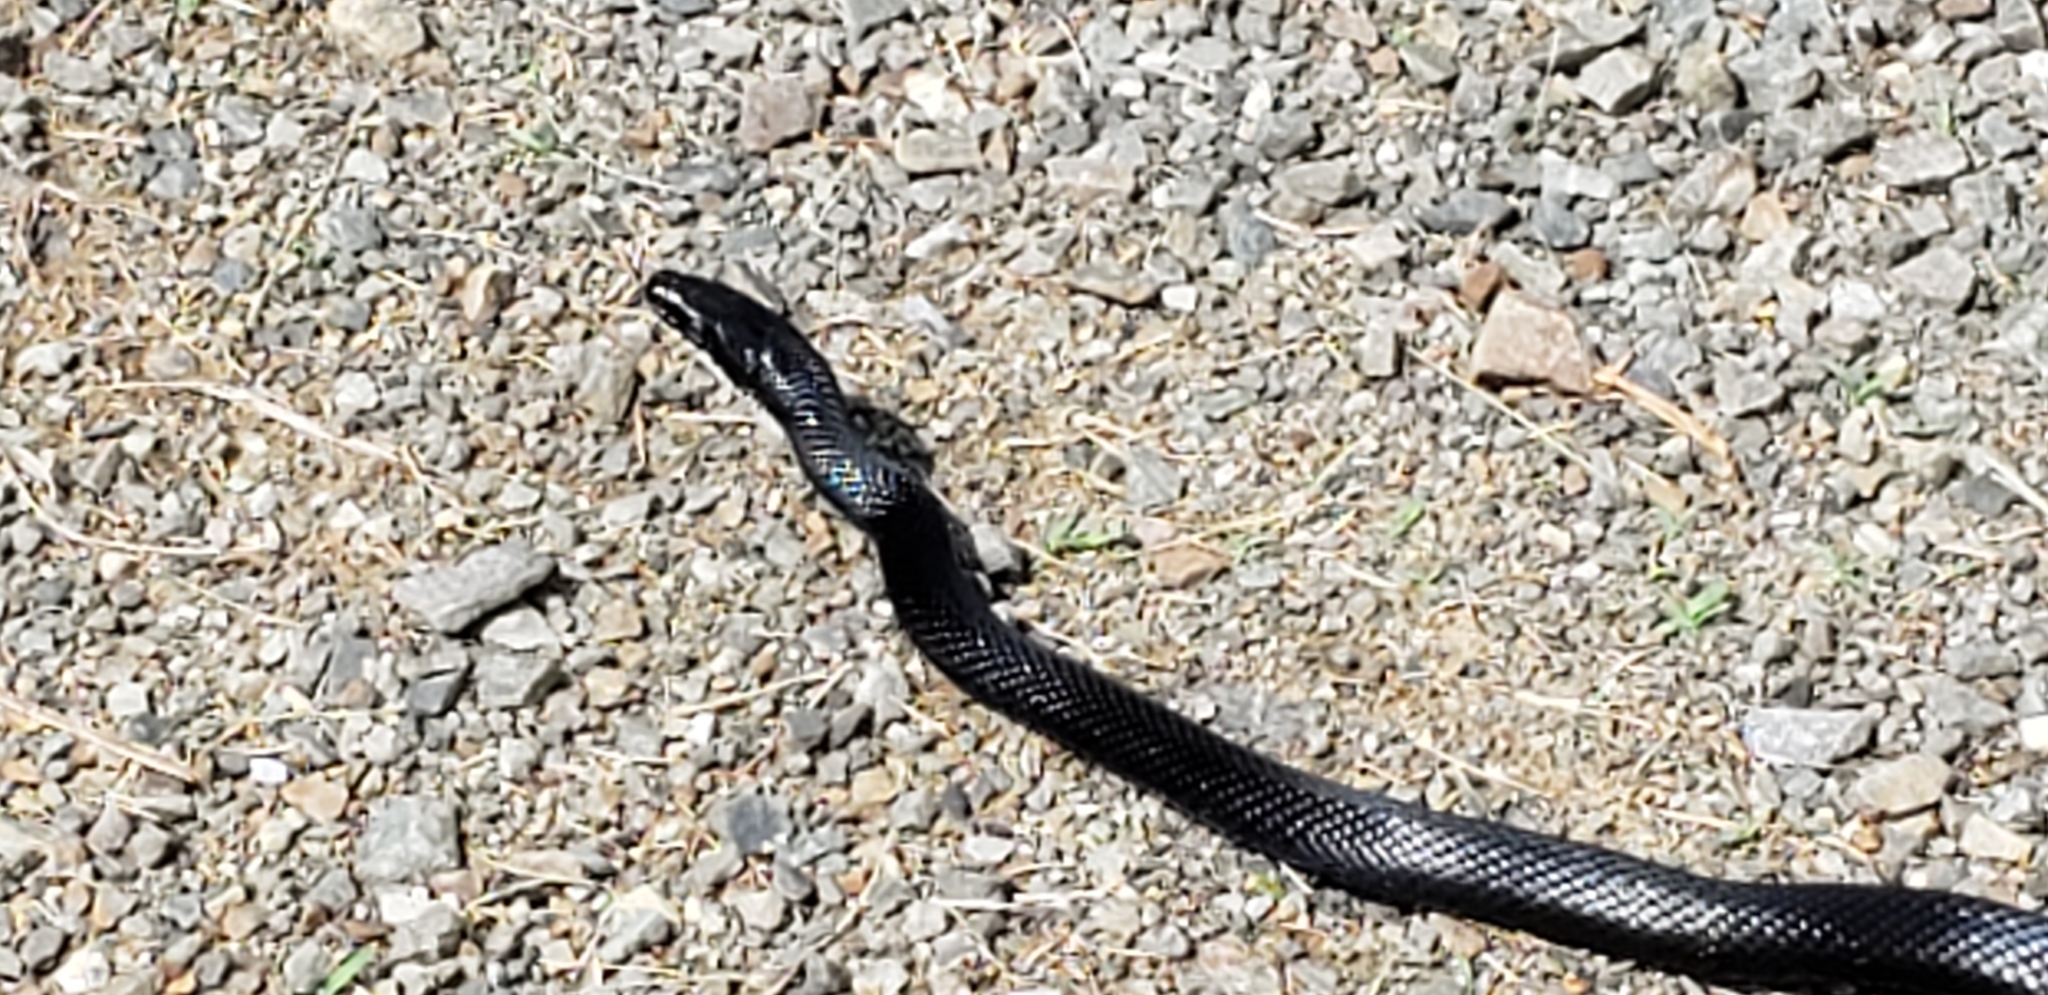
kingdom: Animalia
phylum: Chordata
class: Squamata
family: Colubridae
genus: Pantherophis
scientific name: Pantherophis alleghaniensis
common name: Eastern rat snake
